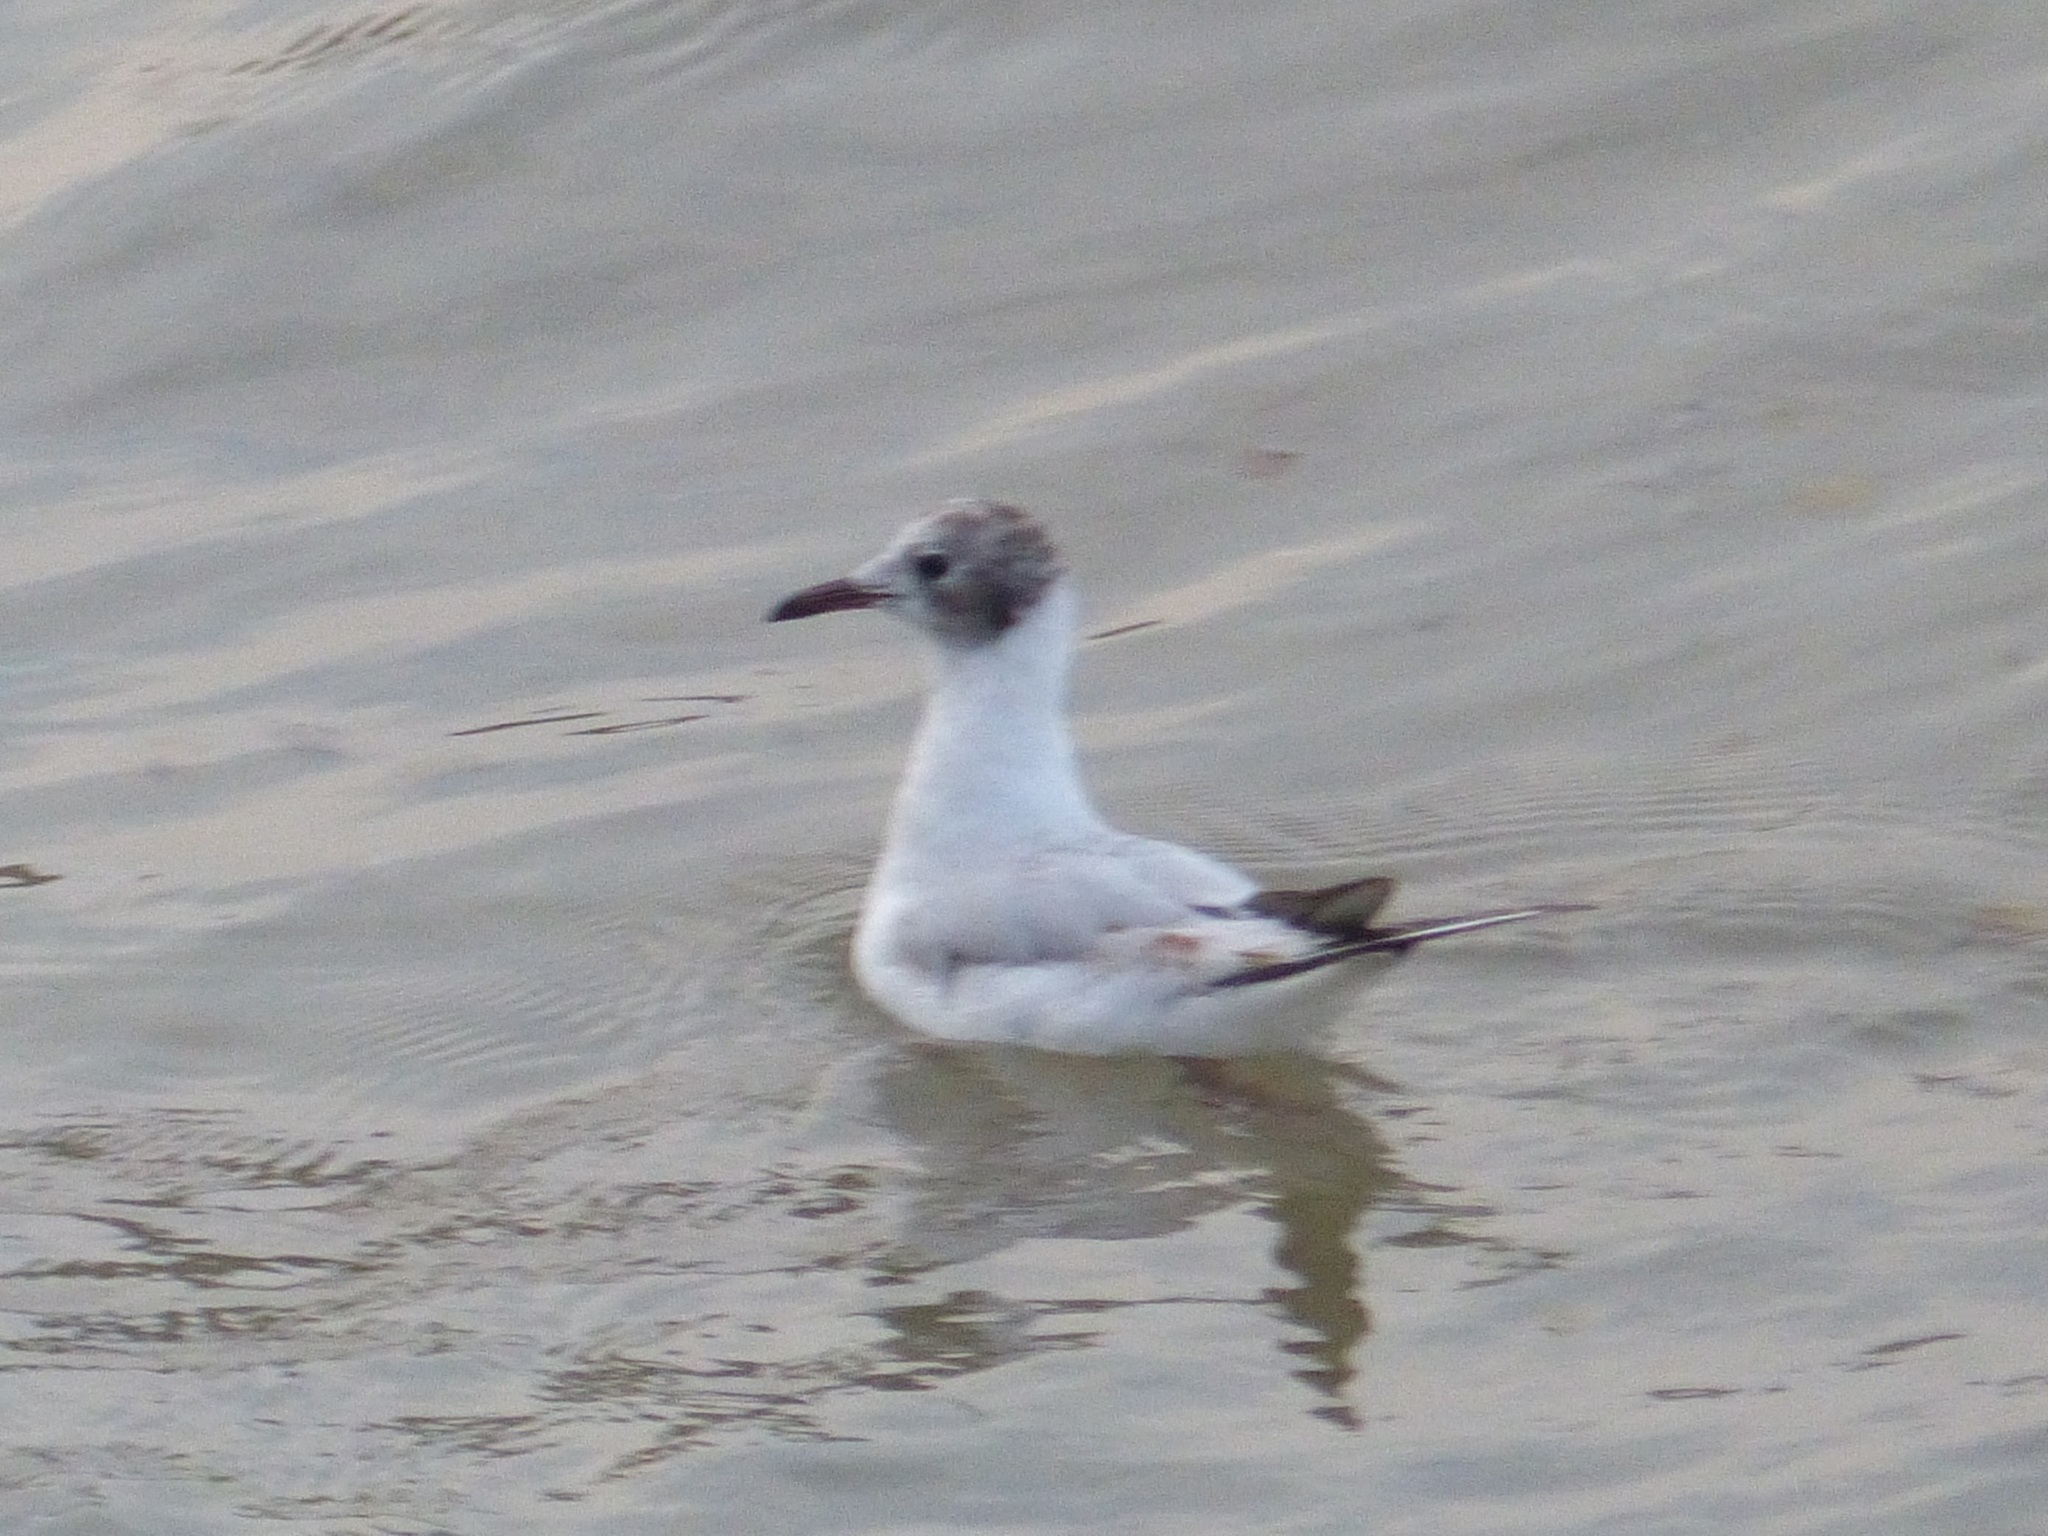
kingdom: Animalia
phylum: Chordata
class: Aves
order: Charadriiformes
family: Laridae
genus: Chroicocephalus
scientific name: Chroicocephalus ridibundus
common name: Black-headed gull
